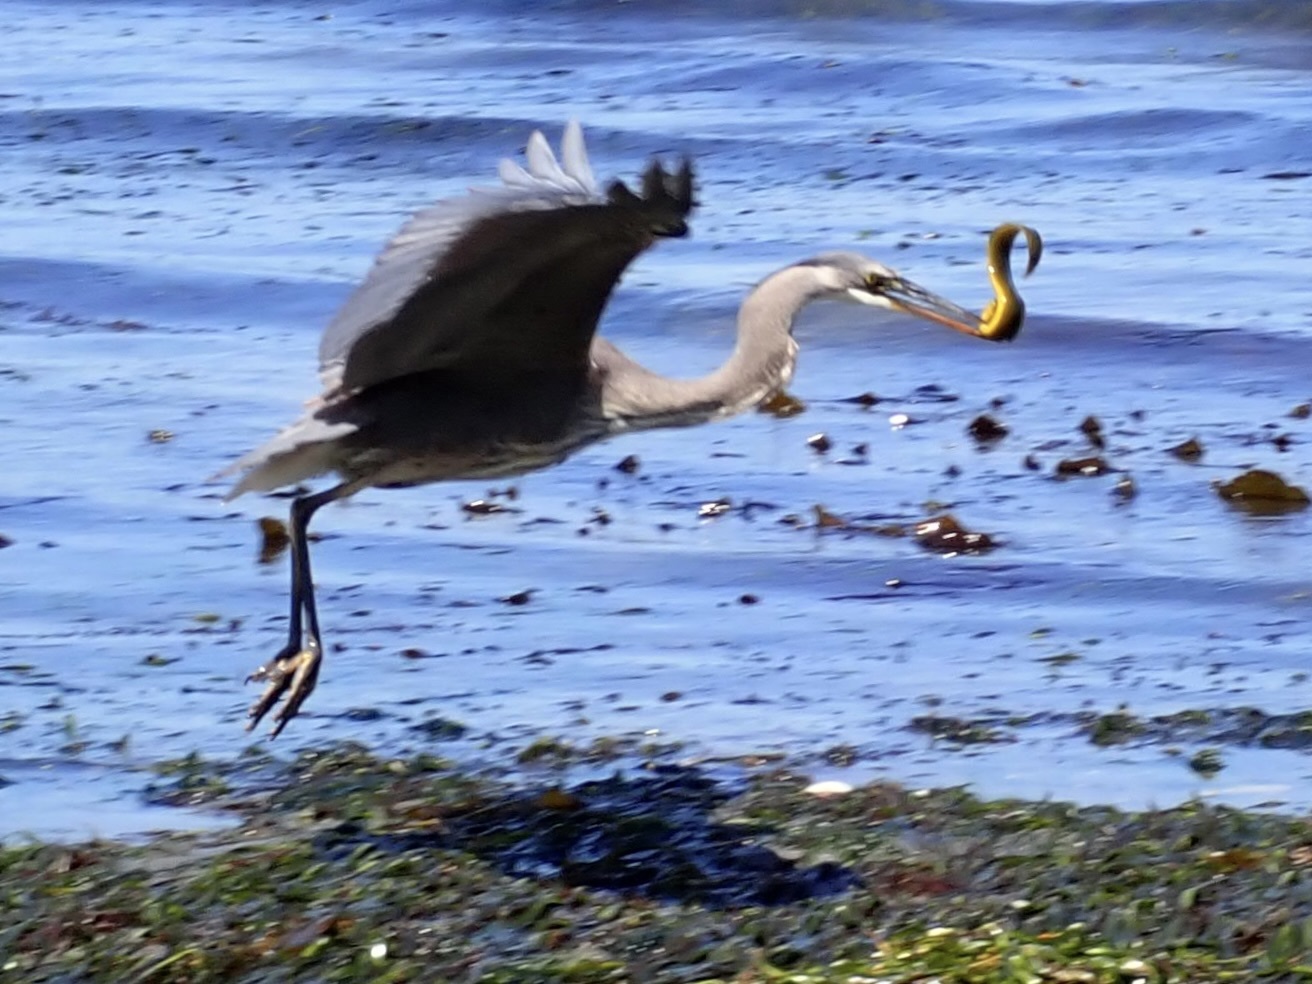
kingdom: Animalia
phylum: Chordata
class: Aves
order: Pelecaniformes
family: Ardeidae
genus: Ardea
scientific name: Ardea herodias
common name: Great blue heron
